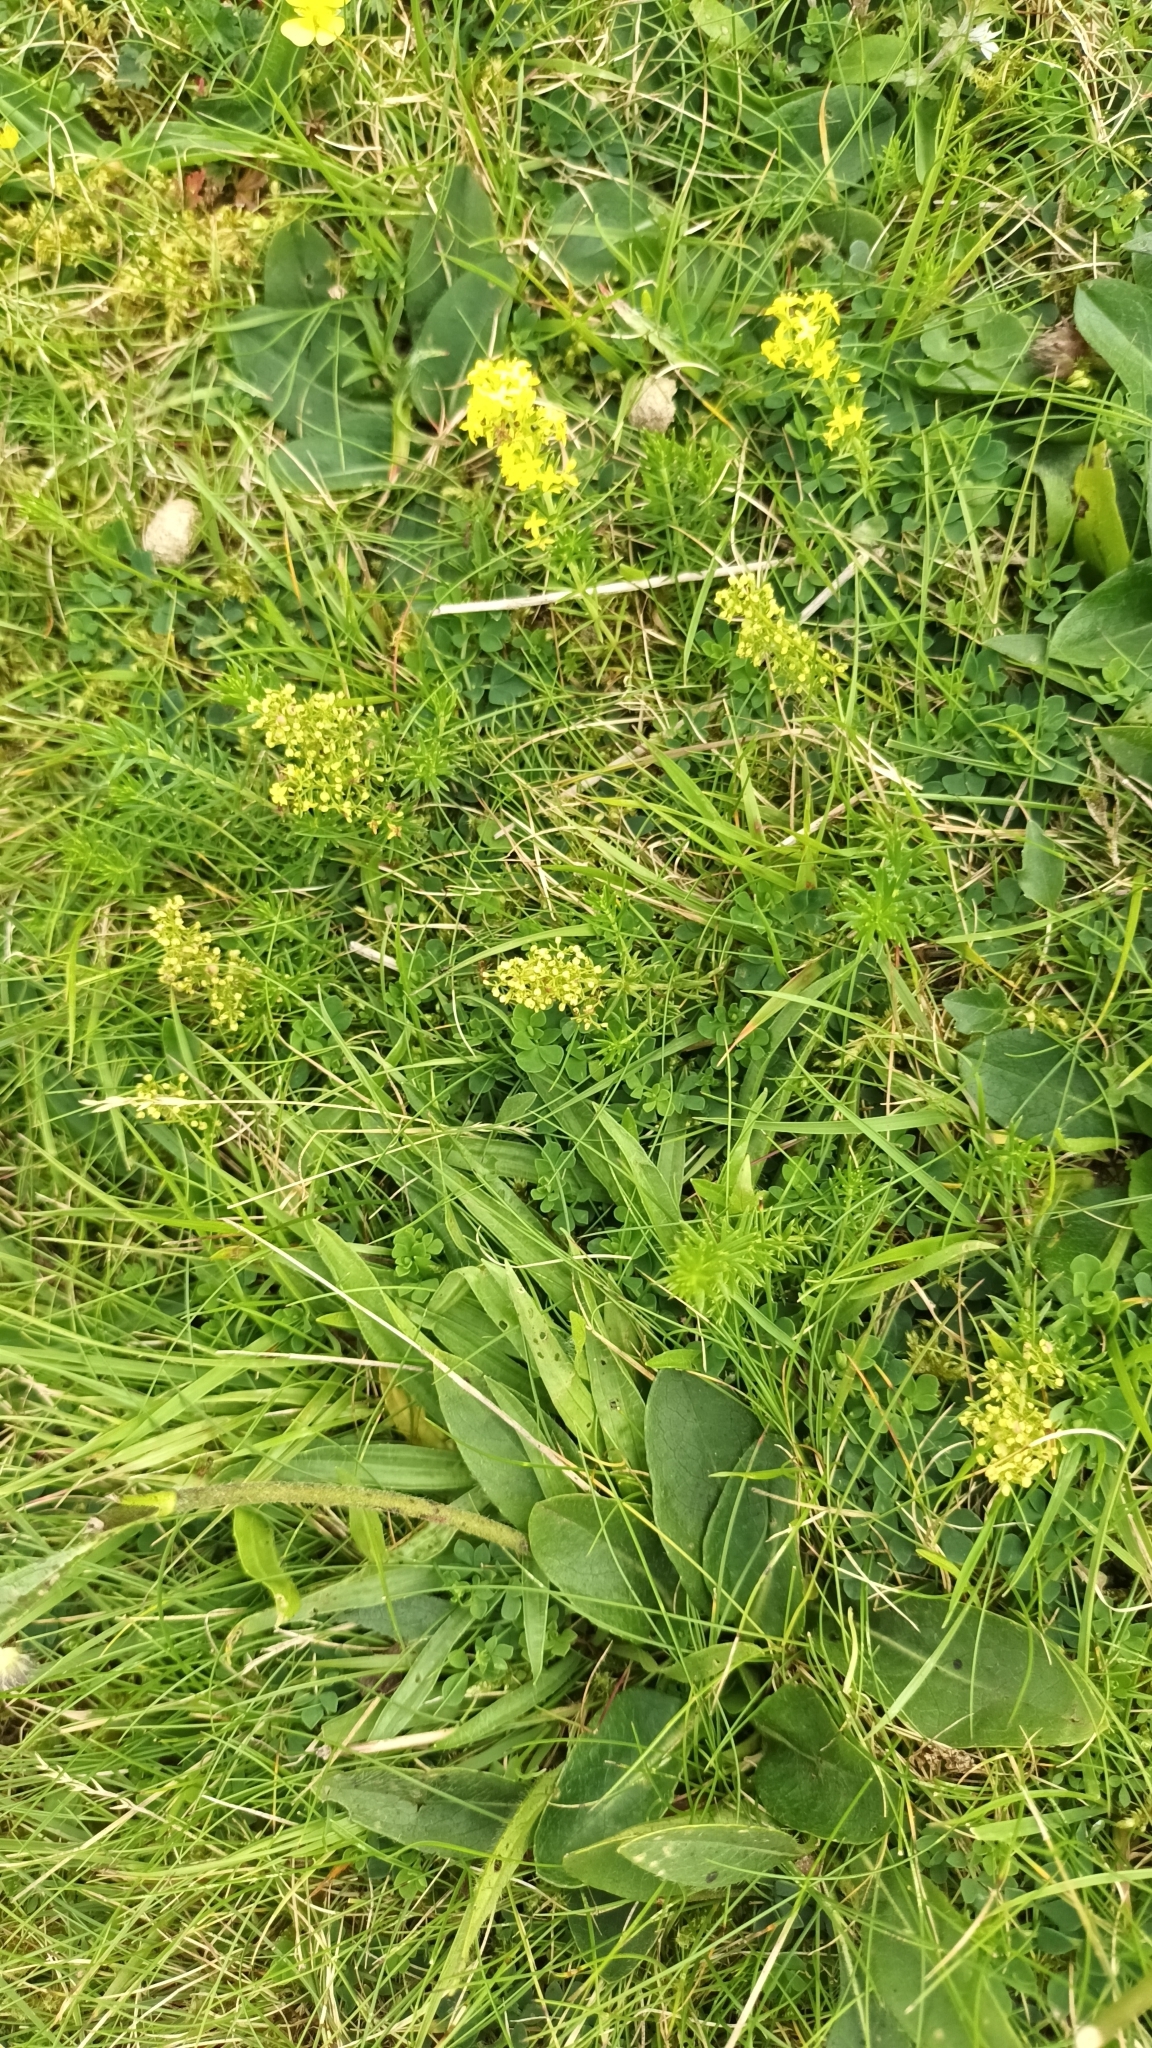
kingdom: Plantae
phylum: Tracheophyta
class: Magnoliopsida
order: Gentianales
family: Rubiaceae
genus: Galium
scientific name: Galium verum
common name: Lady's bedstraw
